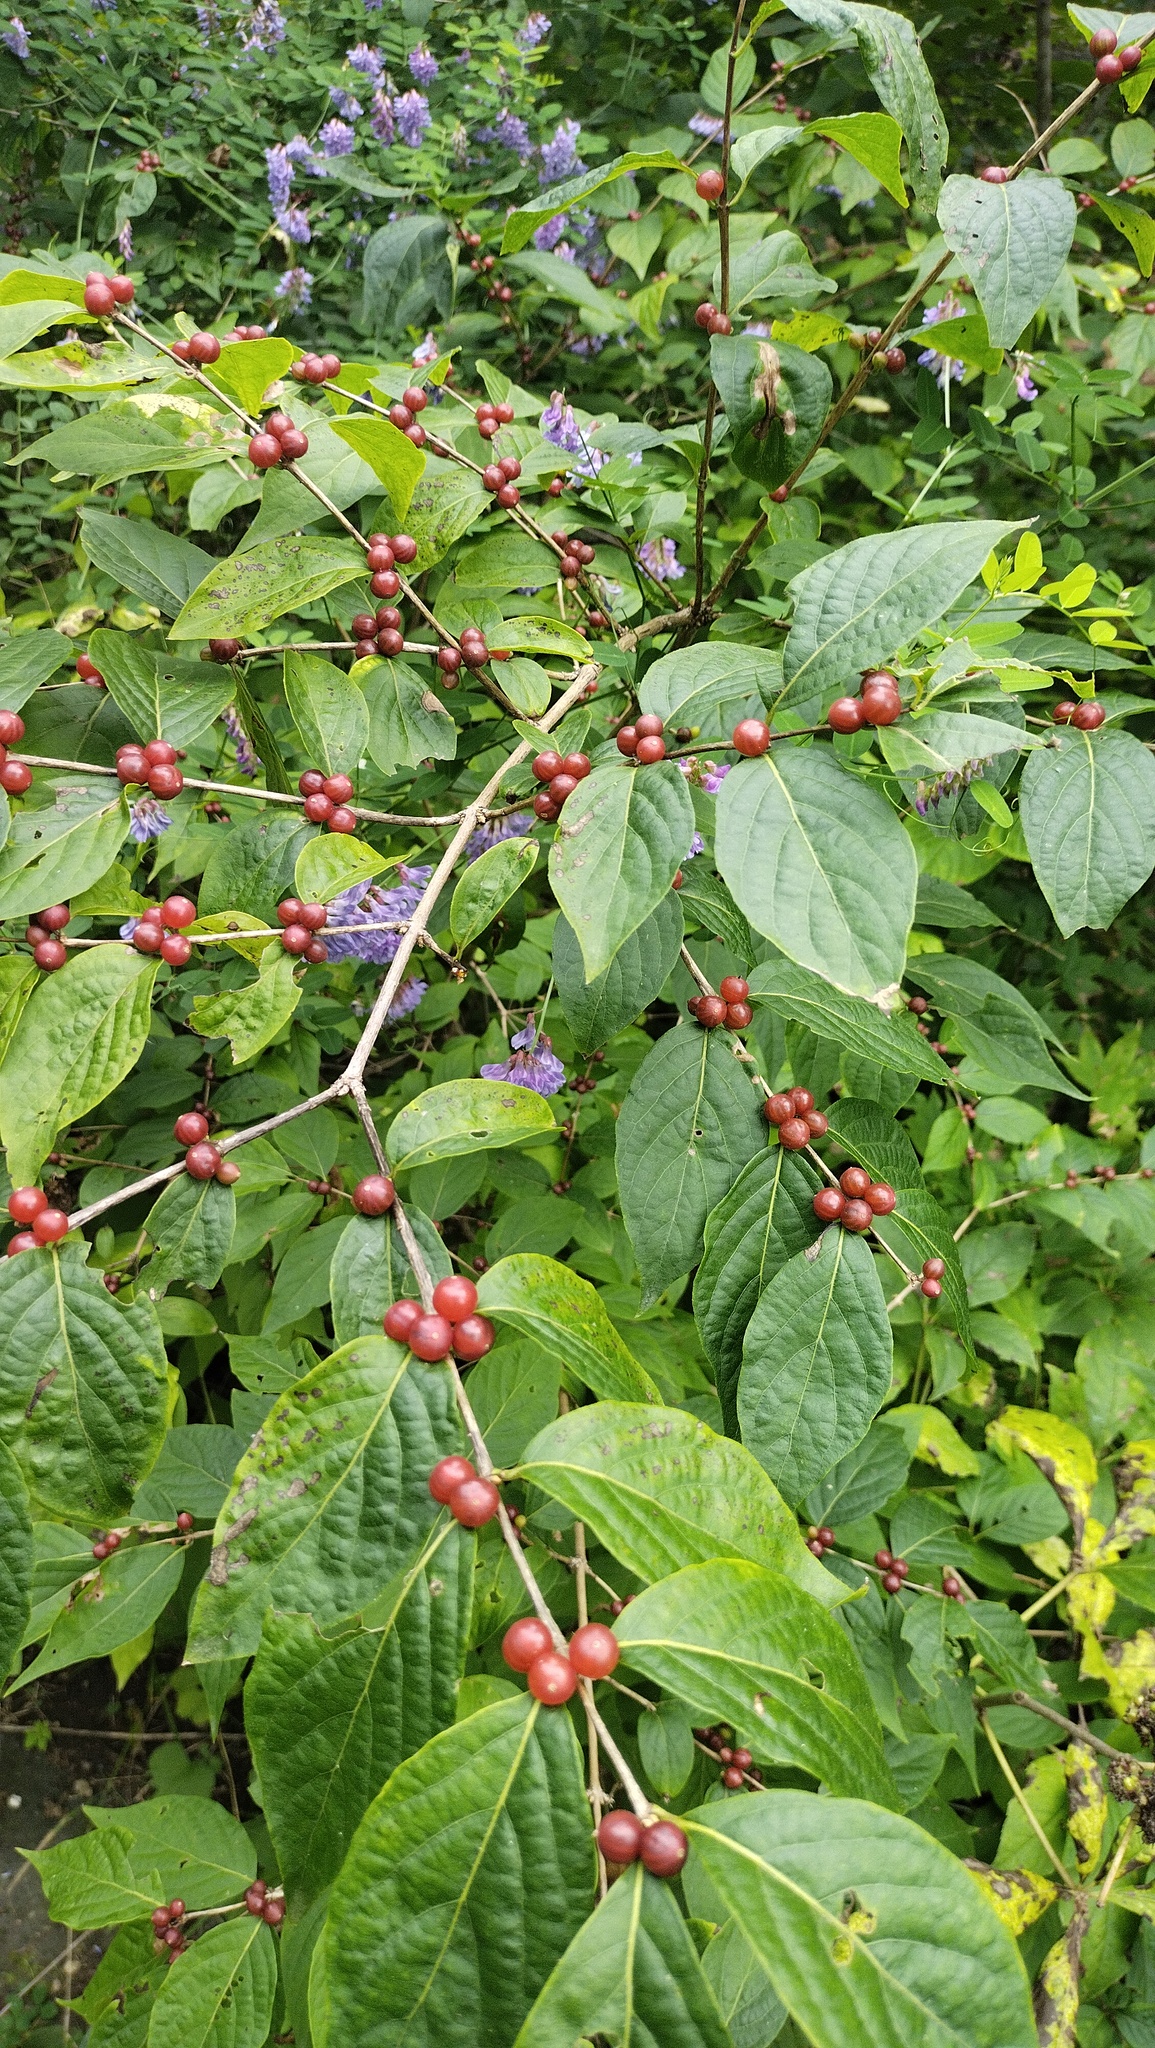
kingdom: Plantae
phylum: Tracheophyta
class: Magnoliopsida
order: Dipsacales
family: Caprifoliaceae
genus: Lonicera
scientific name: Lonicera maackii
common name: Amur honeysuckle
